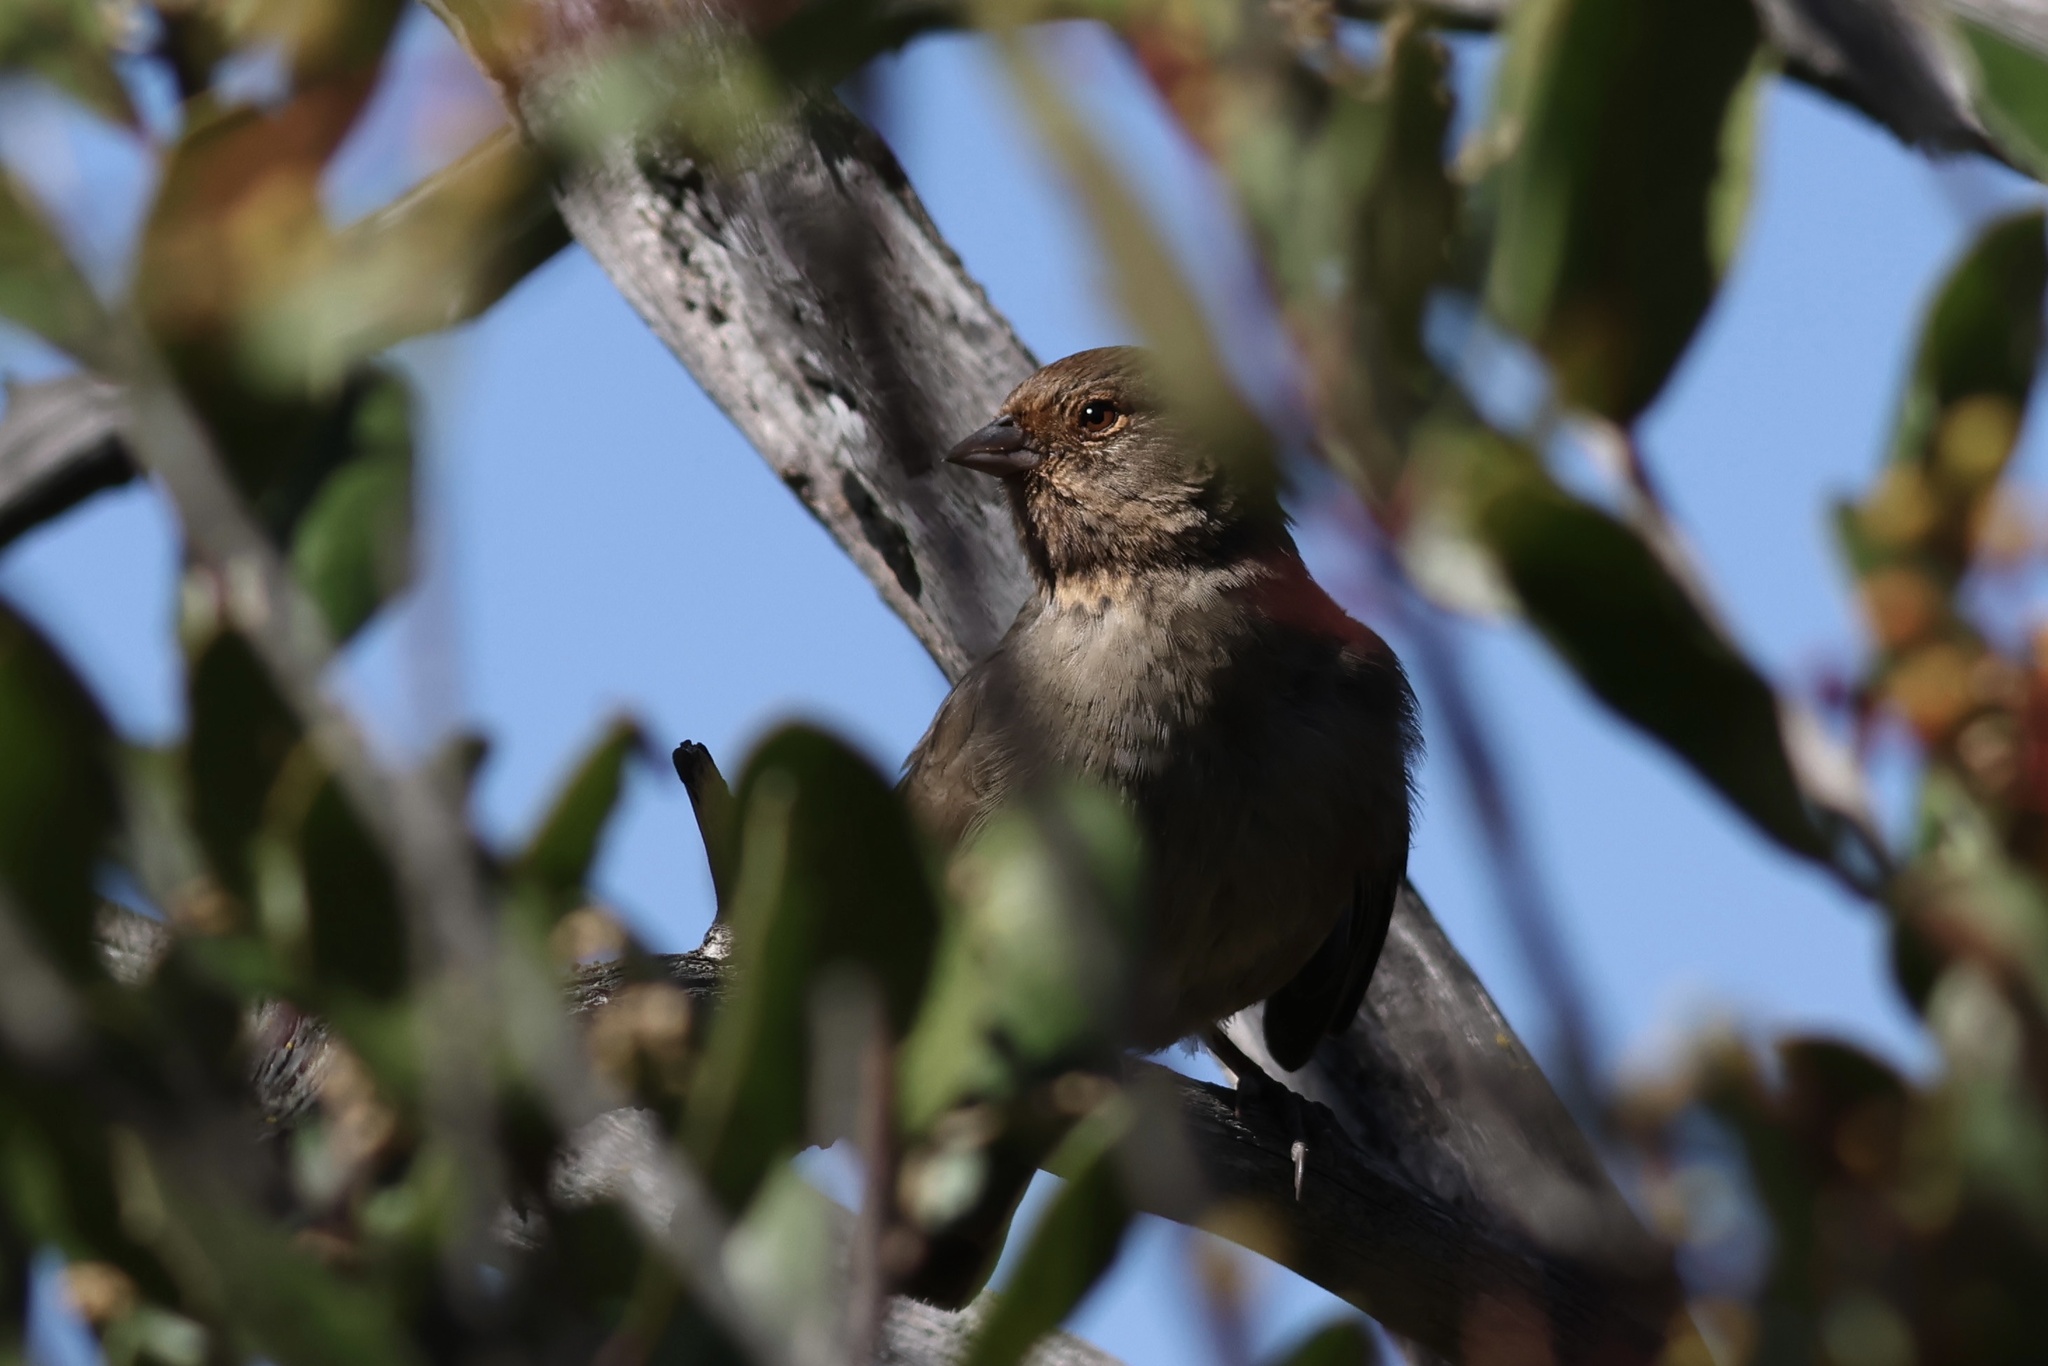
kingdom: Animalia
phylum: Chordata
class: Aves
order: Passeriformes
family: Passerellidae
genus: Melozone
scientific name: Melozone crissalis
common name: California towhee
